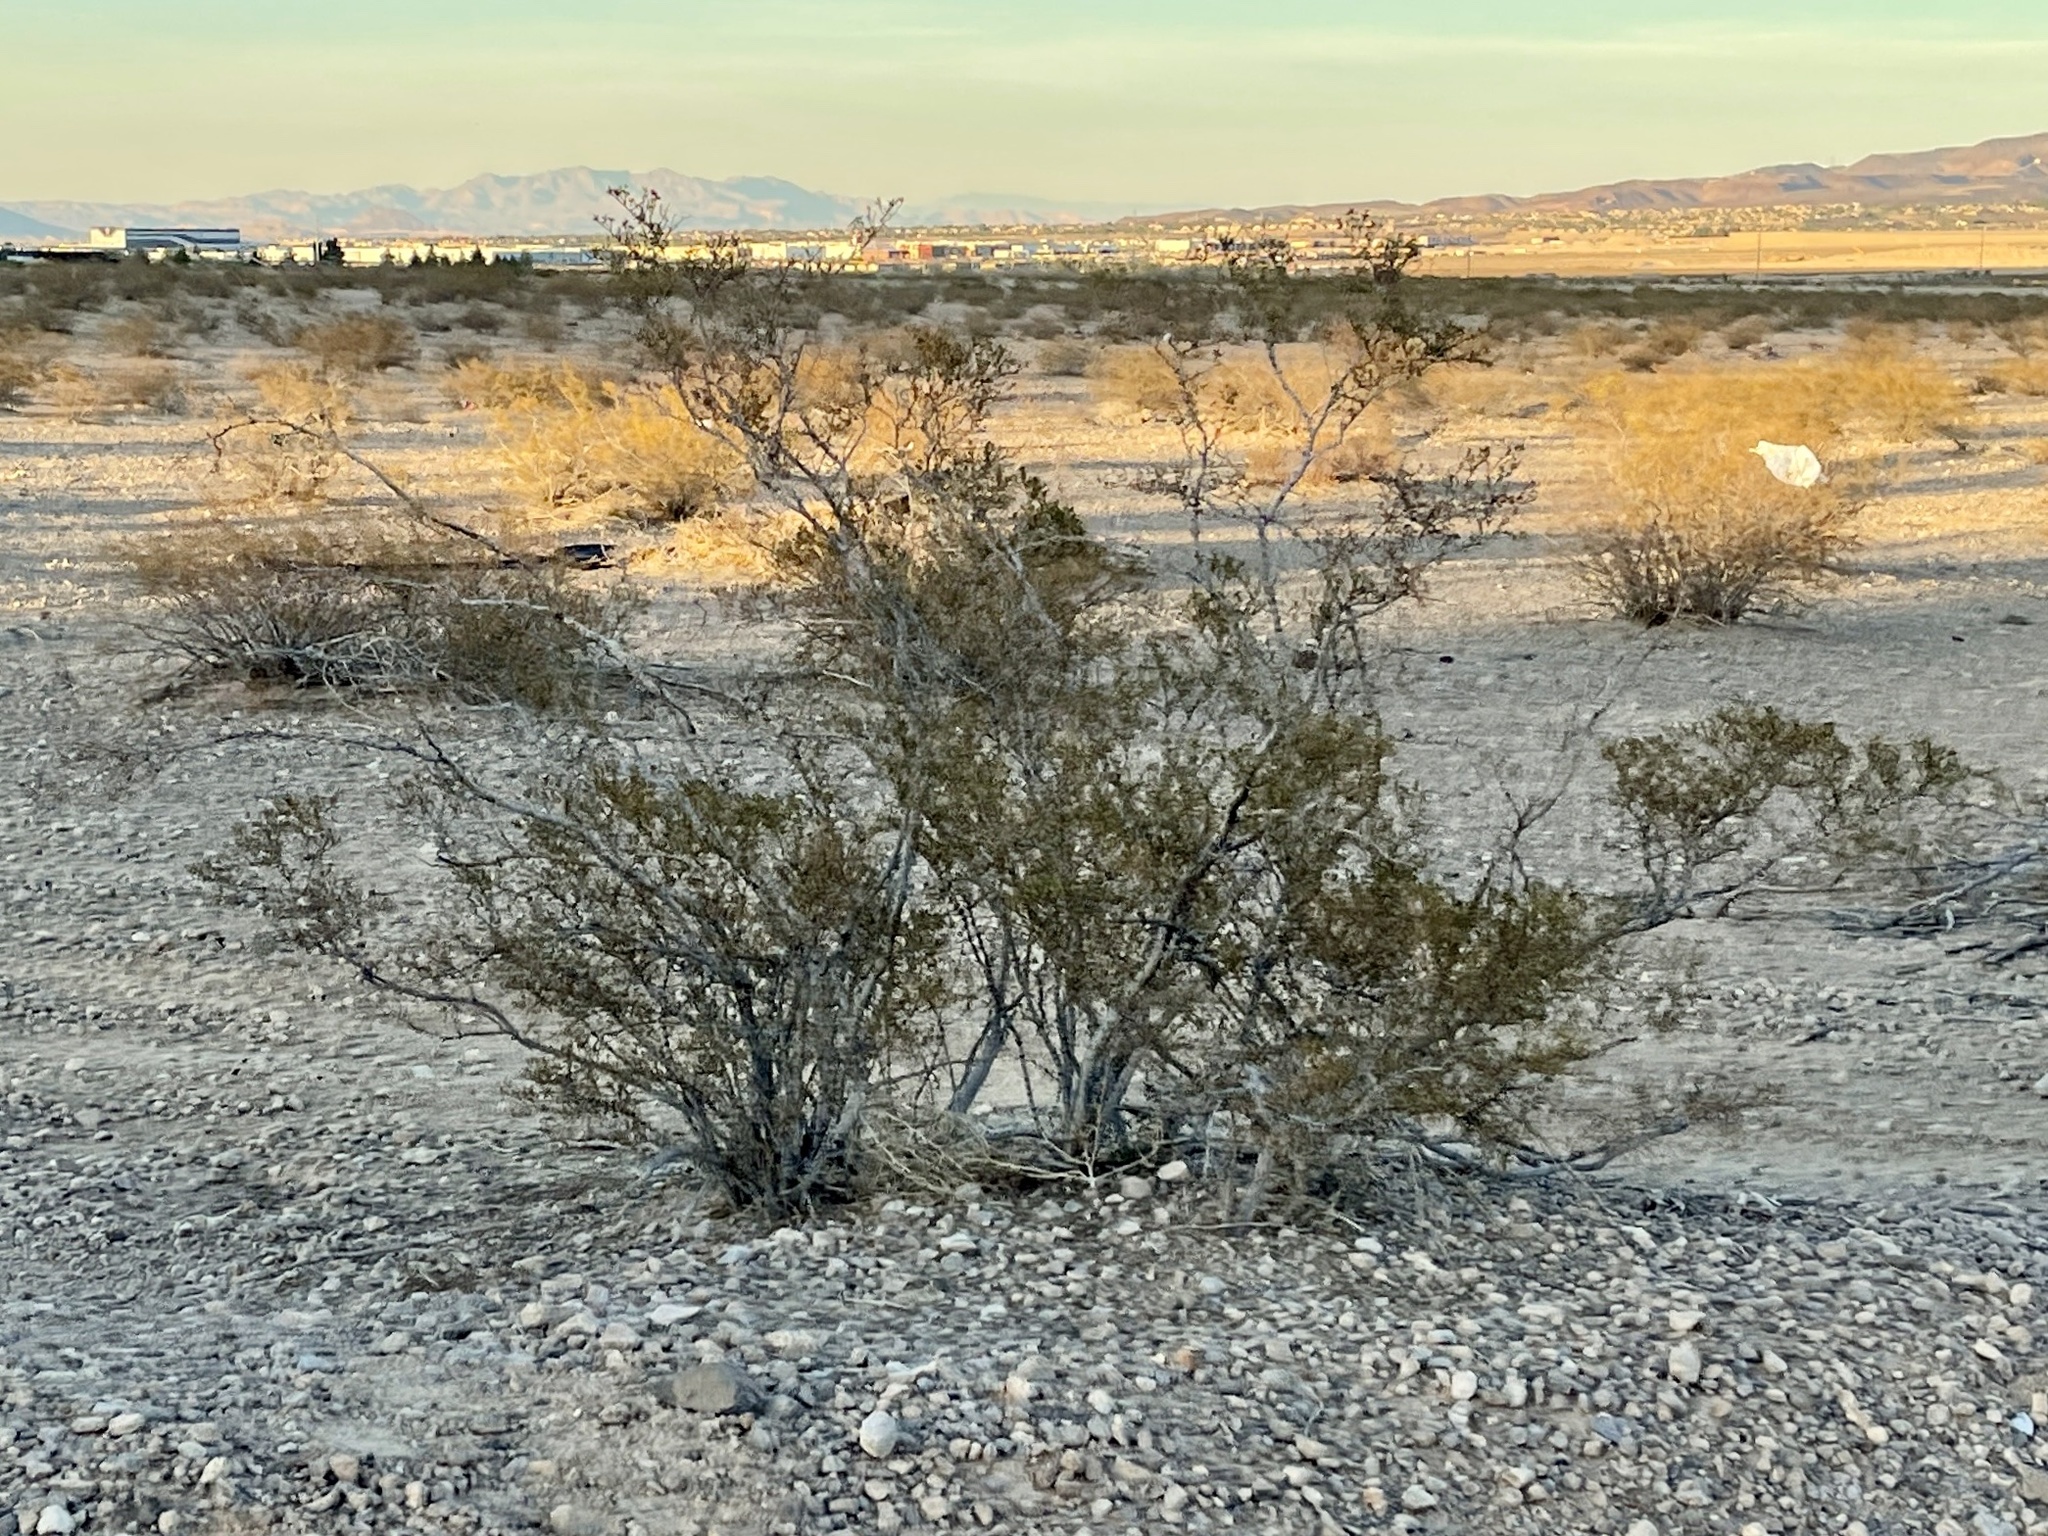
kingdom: Plantae
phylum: Tracheophyta
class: Magnoliopsida
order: Zygophyllales
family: Zygophyllaceae
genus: Larrea
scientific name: Larrea tridentata
